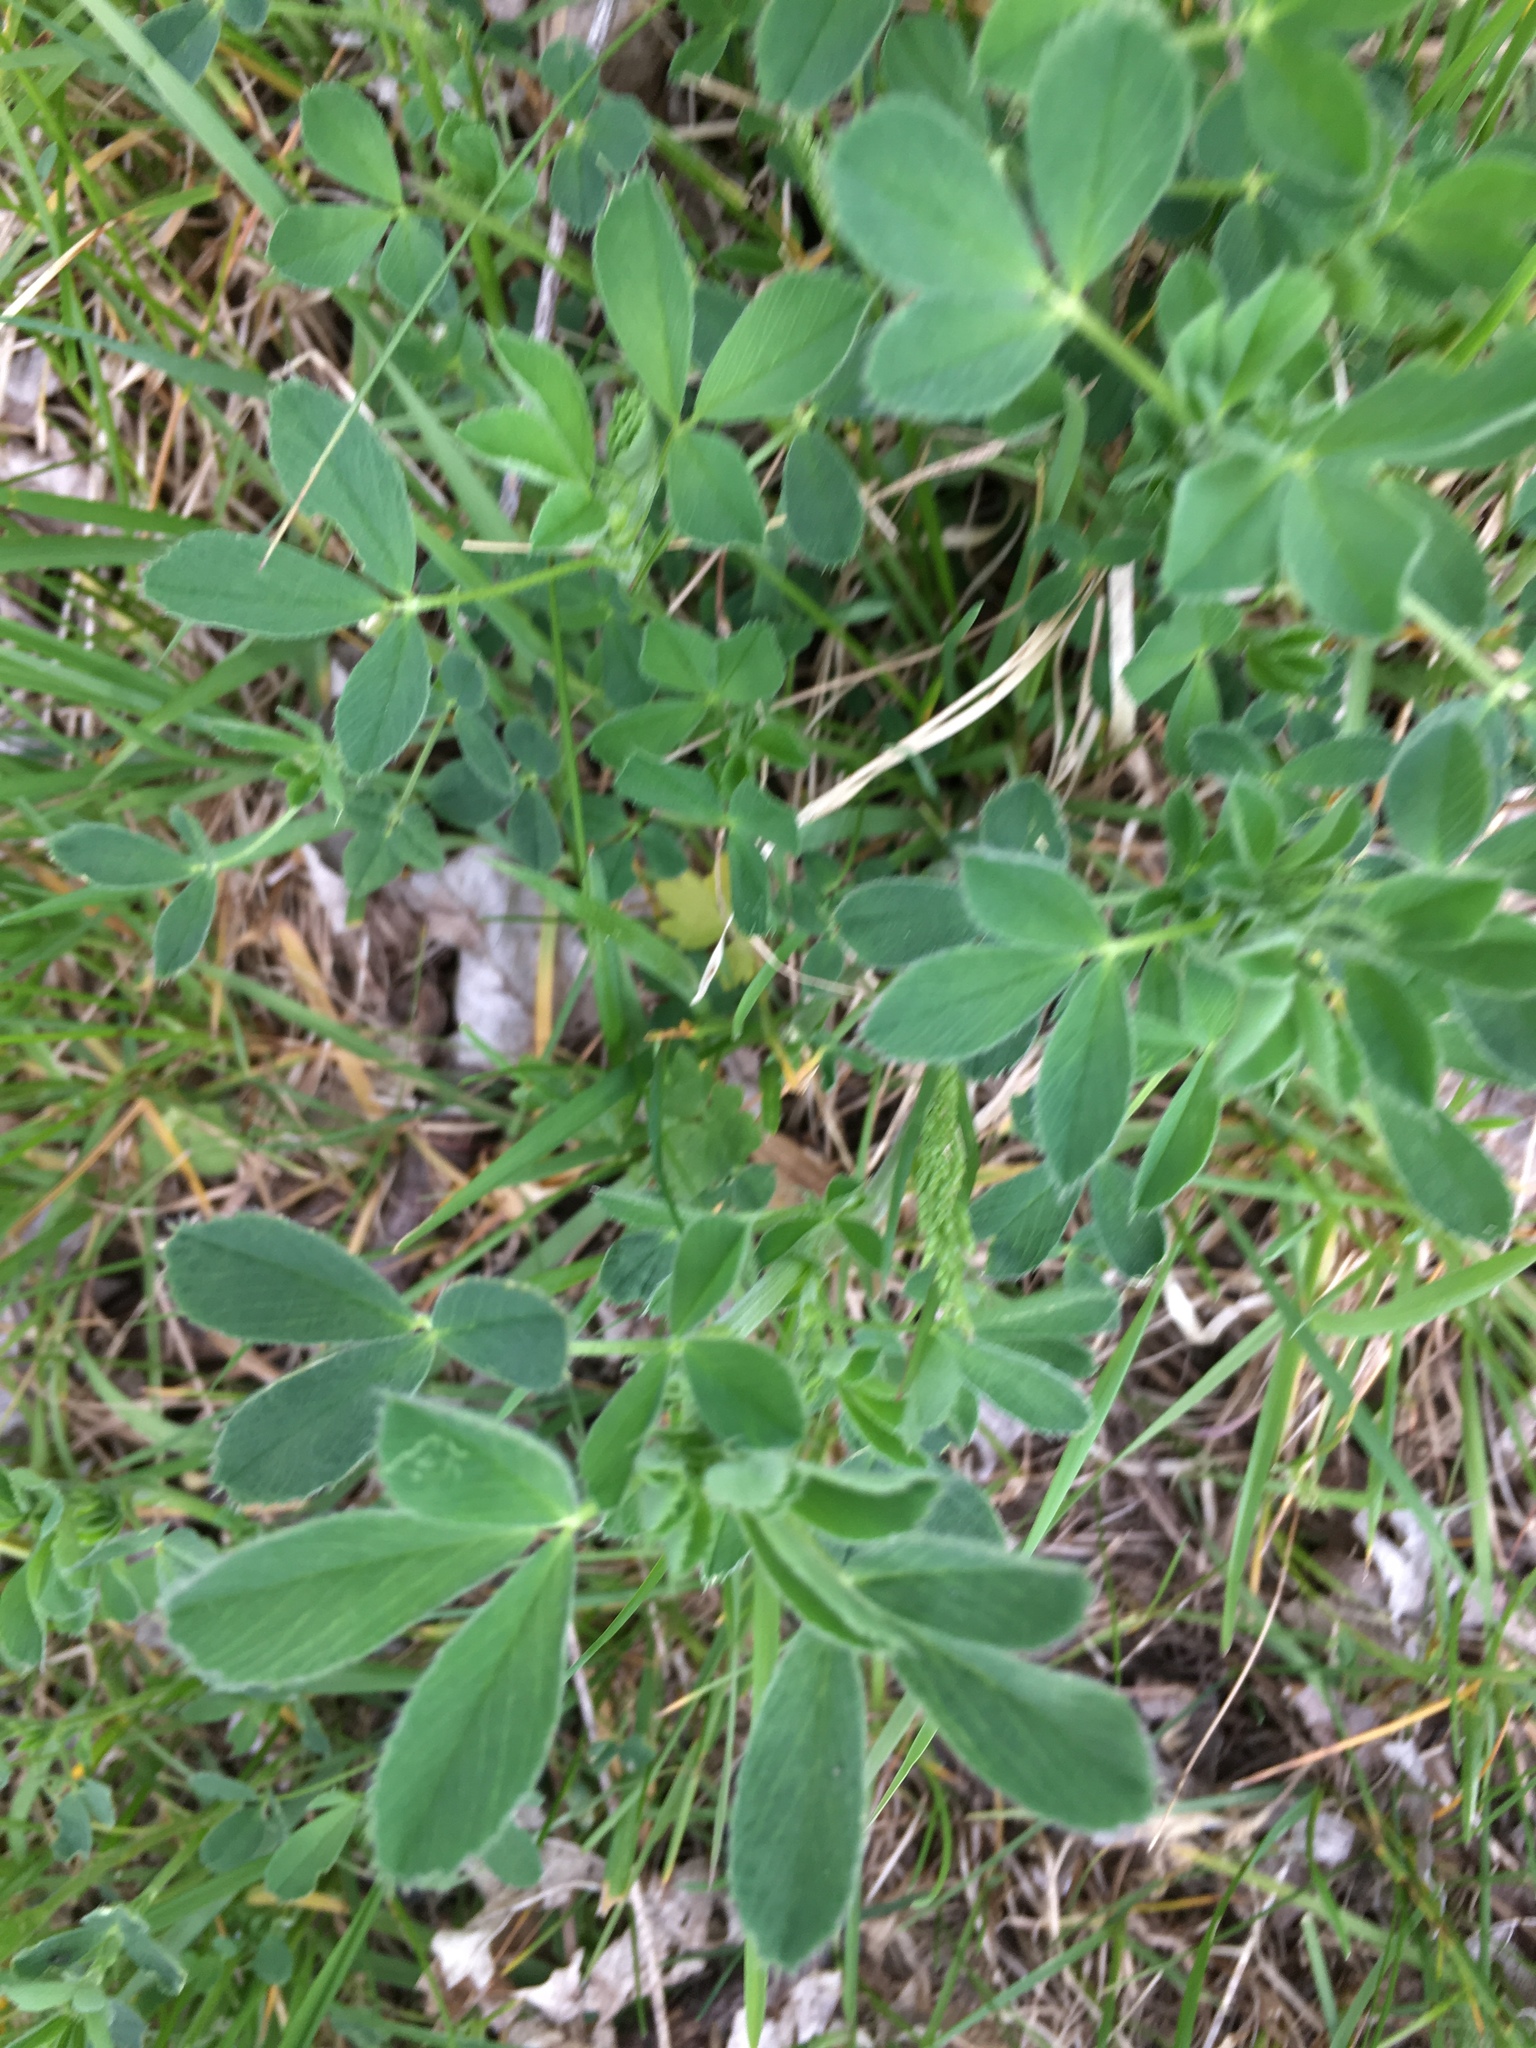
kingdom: Plantae
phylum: Tracheophyta
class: Magnoliopsida
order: Fabales
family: Fabaceae
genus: Medicago
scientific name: Medicago
